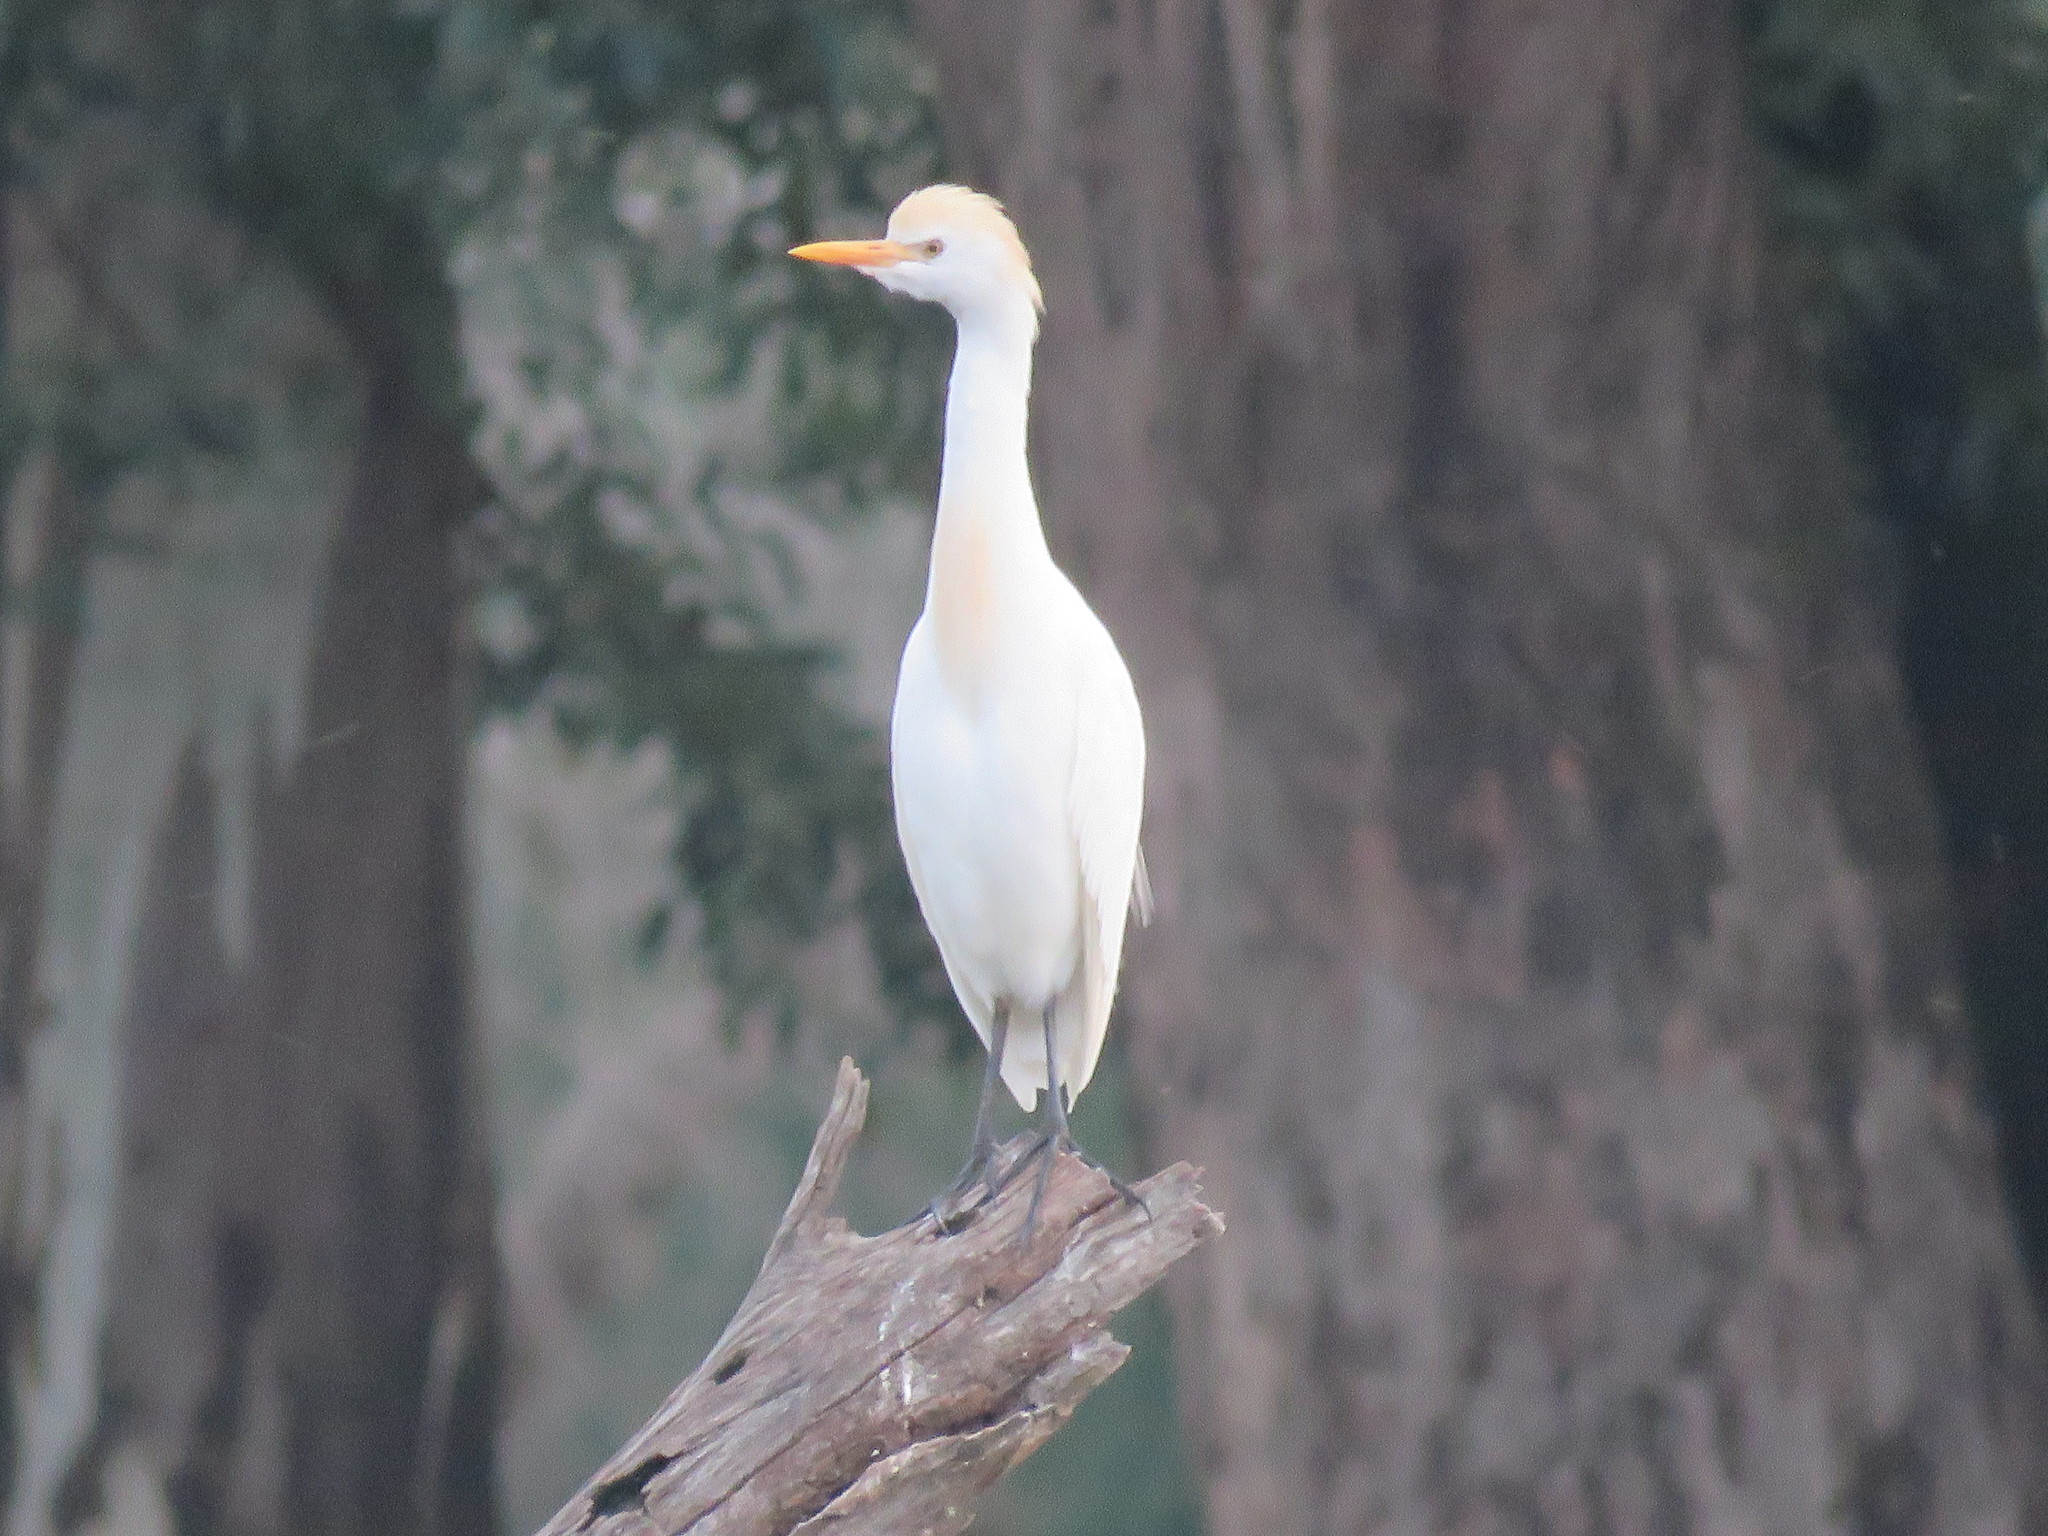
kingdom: Animalia
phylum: Chordata
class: Aves
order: Pelecaniformes
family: Ardeidae
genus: Bubulcus
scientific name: Bubulcus ibis
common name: Cattle egret
